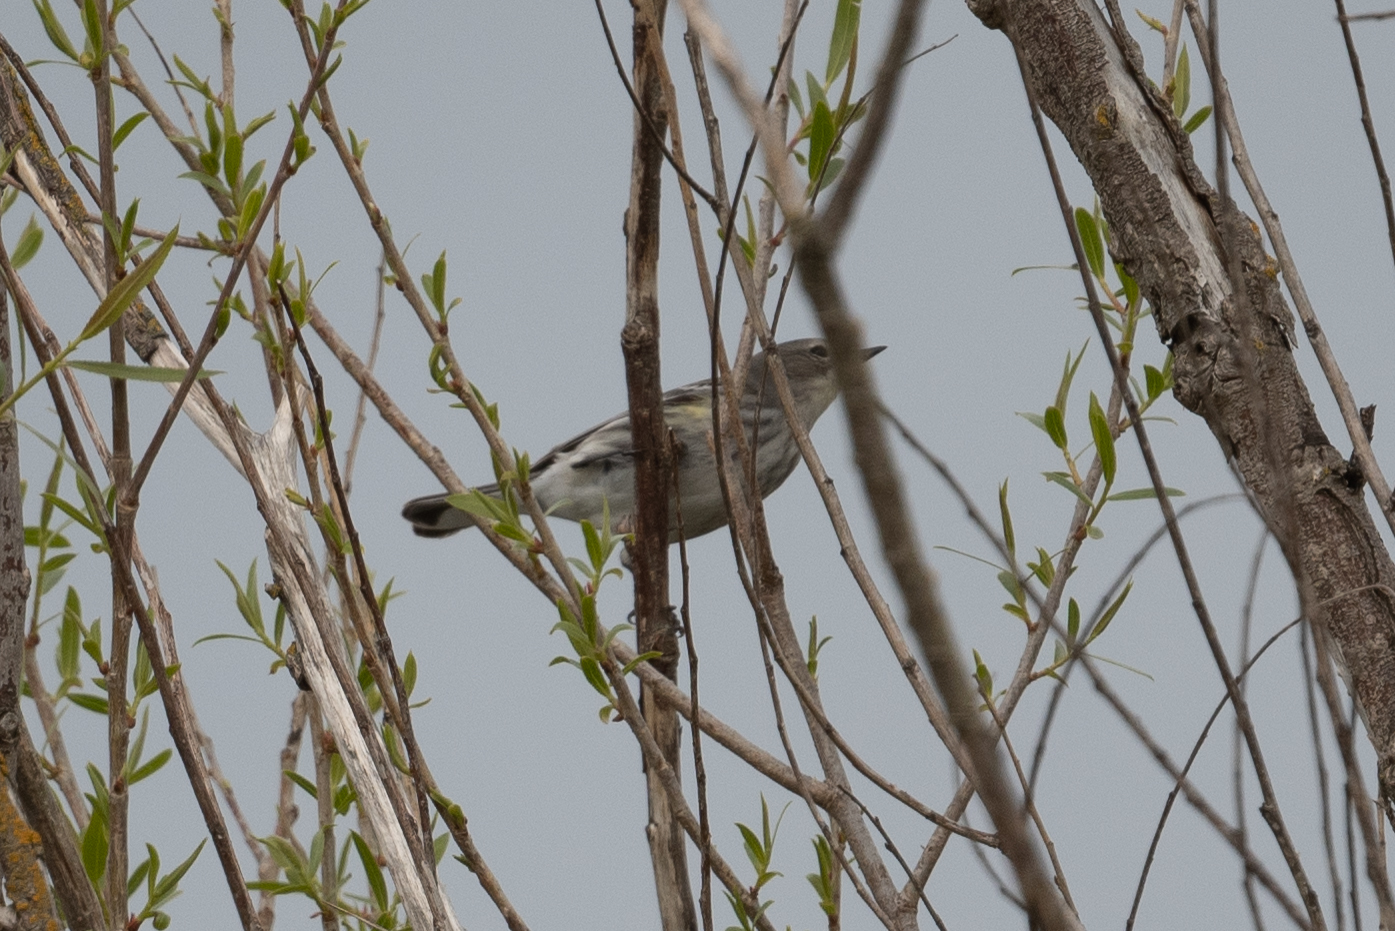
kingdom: Animalia
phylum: Chordata
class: Aves
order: Passeriformes
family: Parulidae
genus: Setophaga
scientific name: Setophaga coronata
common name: Myrtle warbler
